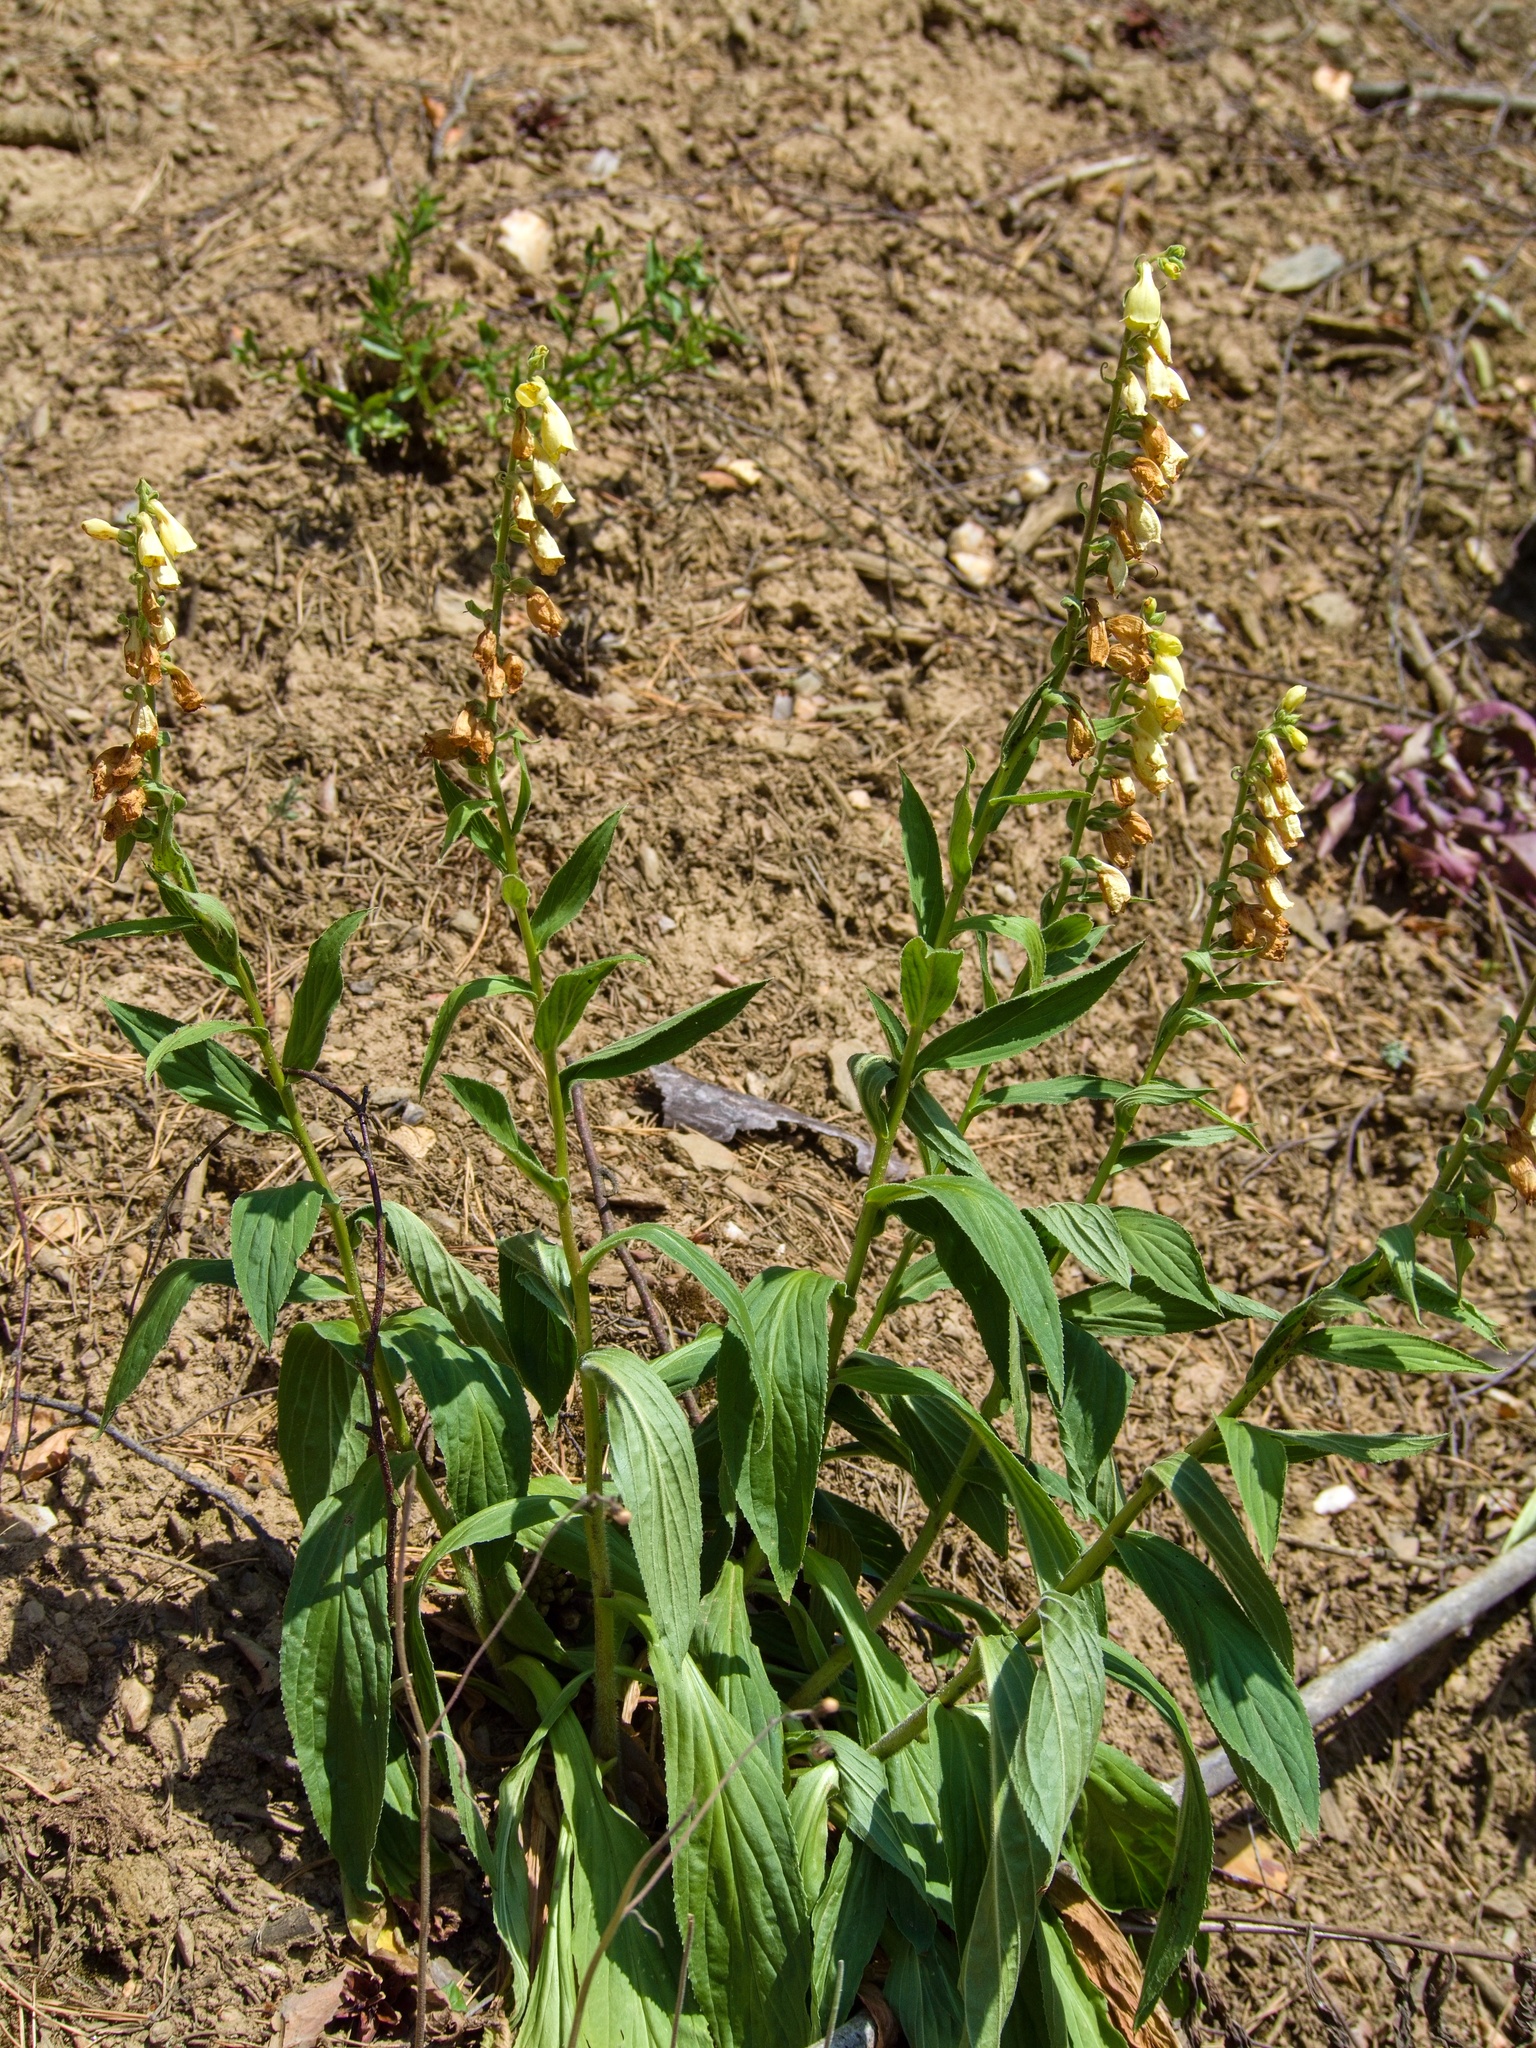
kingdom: Plantae
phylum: Tracheophyta
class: Magnoliopsida
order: Lamiales
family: Plantaginaceae
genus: Digitalis
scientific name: Digitalis grandiflora
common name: Yellow foxglove
